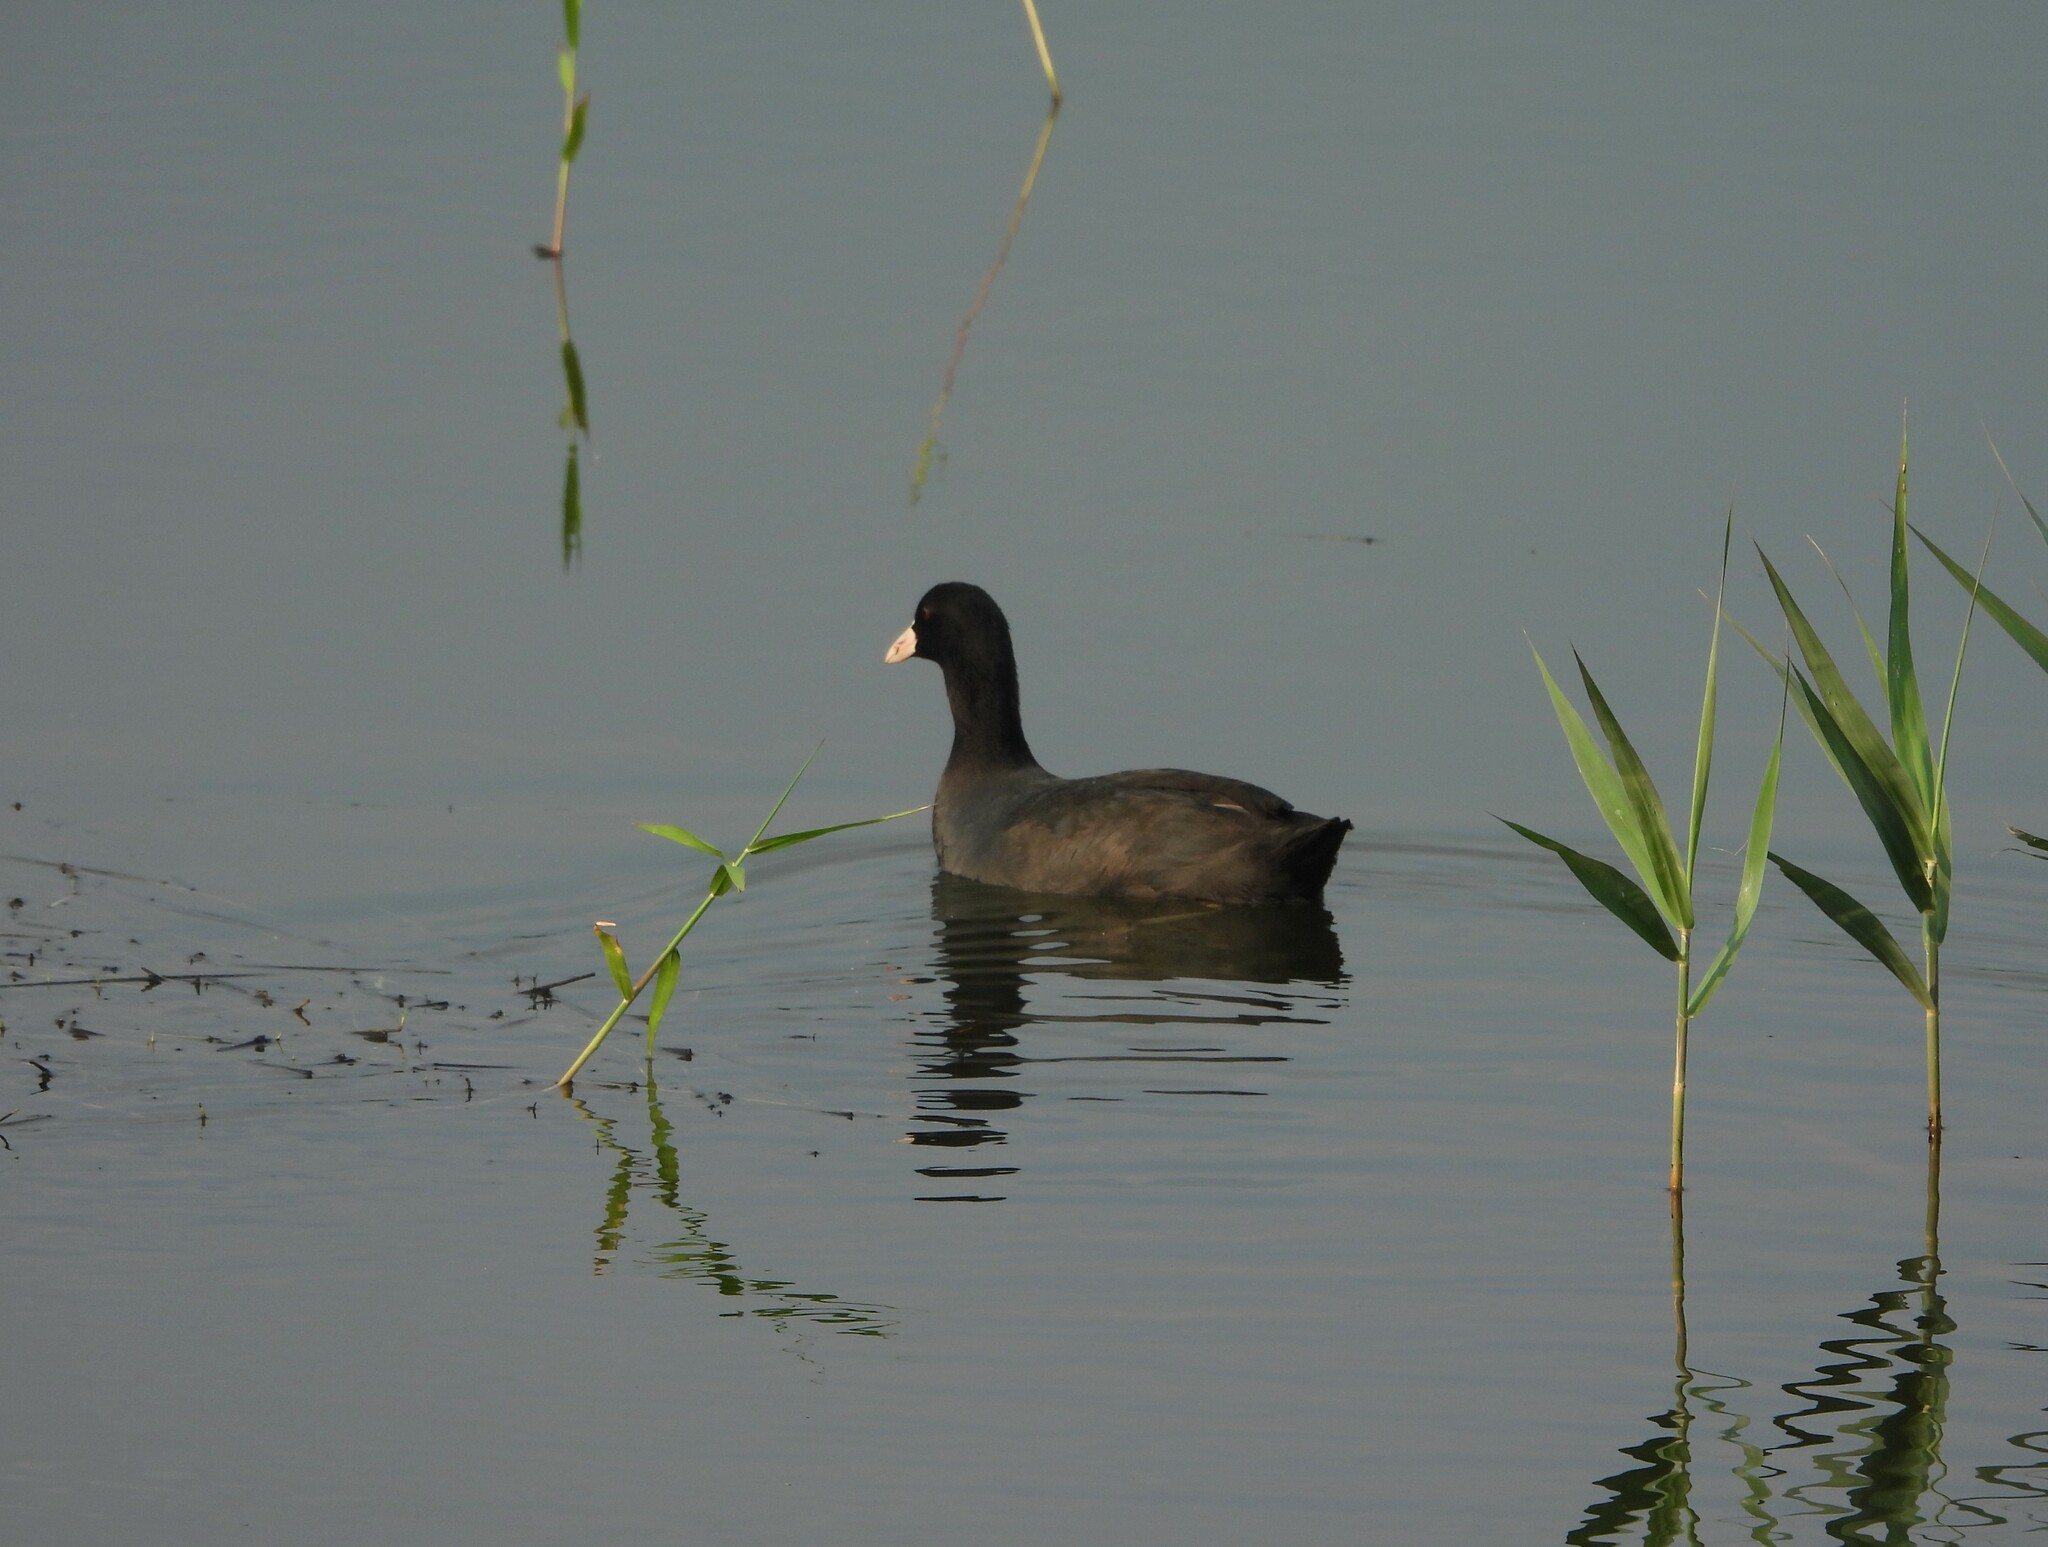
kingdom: Animalia
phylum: Chordata
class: Aves
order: Gruiformes
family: Rallidae
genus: Fulica
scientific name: Fulica atra
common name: Eurasian coot
